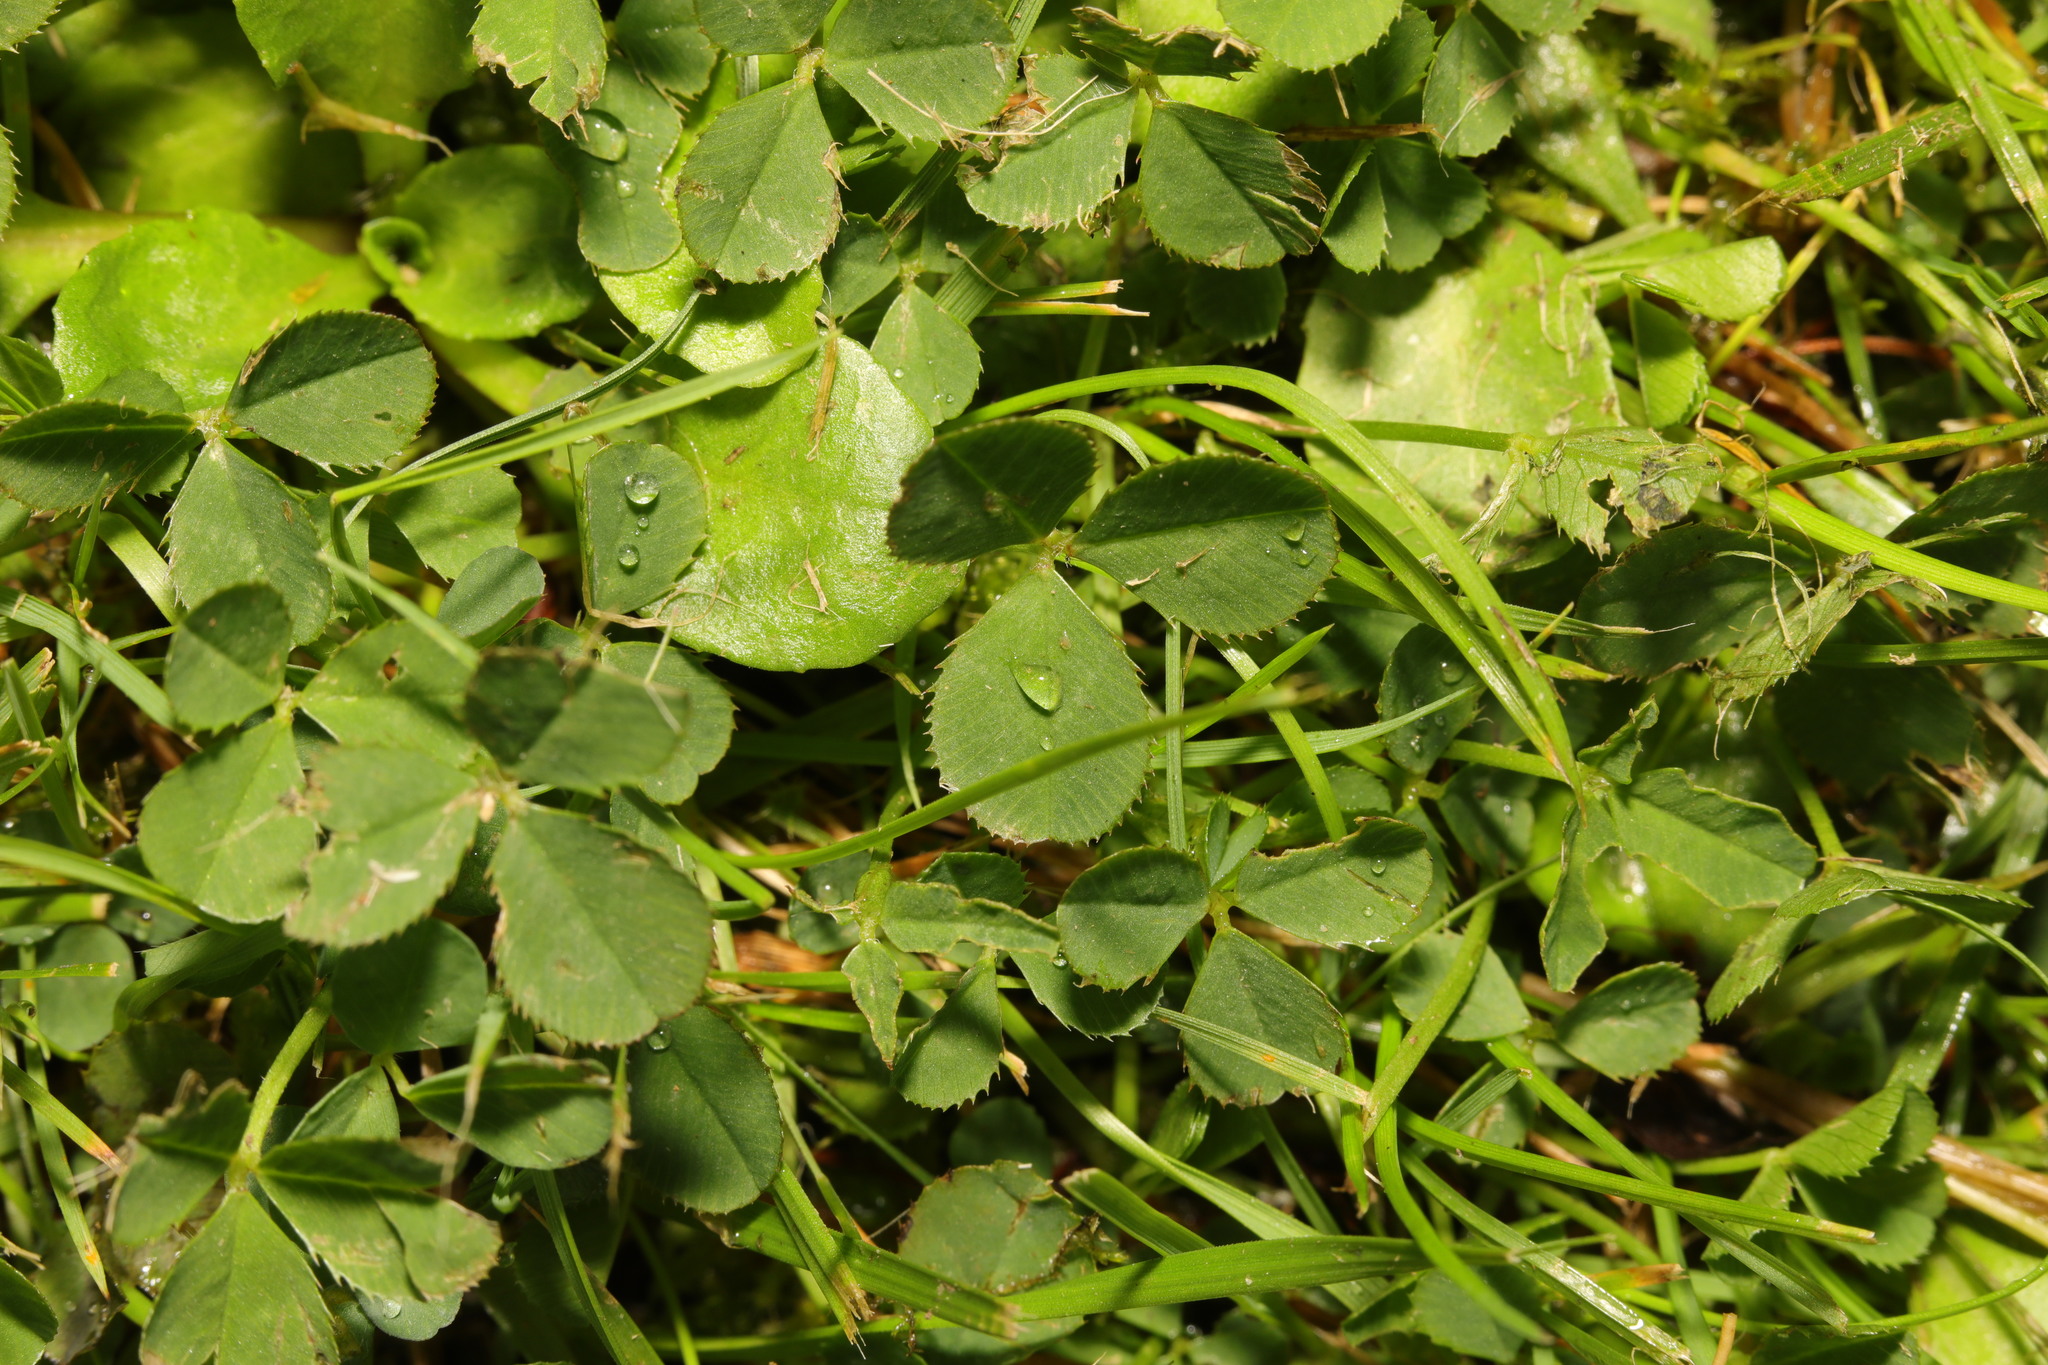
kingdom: Plantae
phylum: Tracheophyta
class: Magnoliopsida
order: Fabales
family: Fabaceae
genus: Trifolium
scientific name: Trifolium repens
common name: White clover
